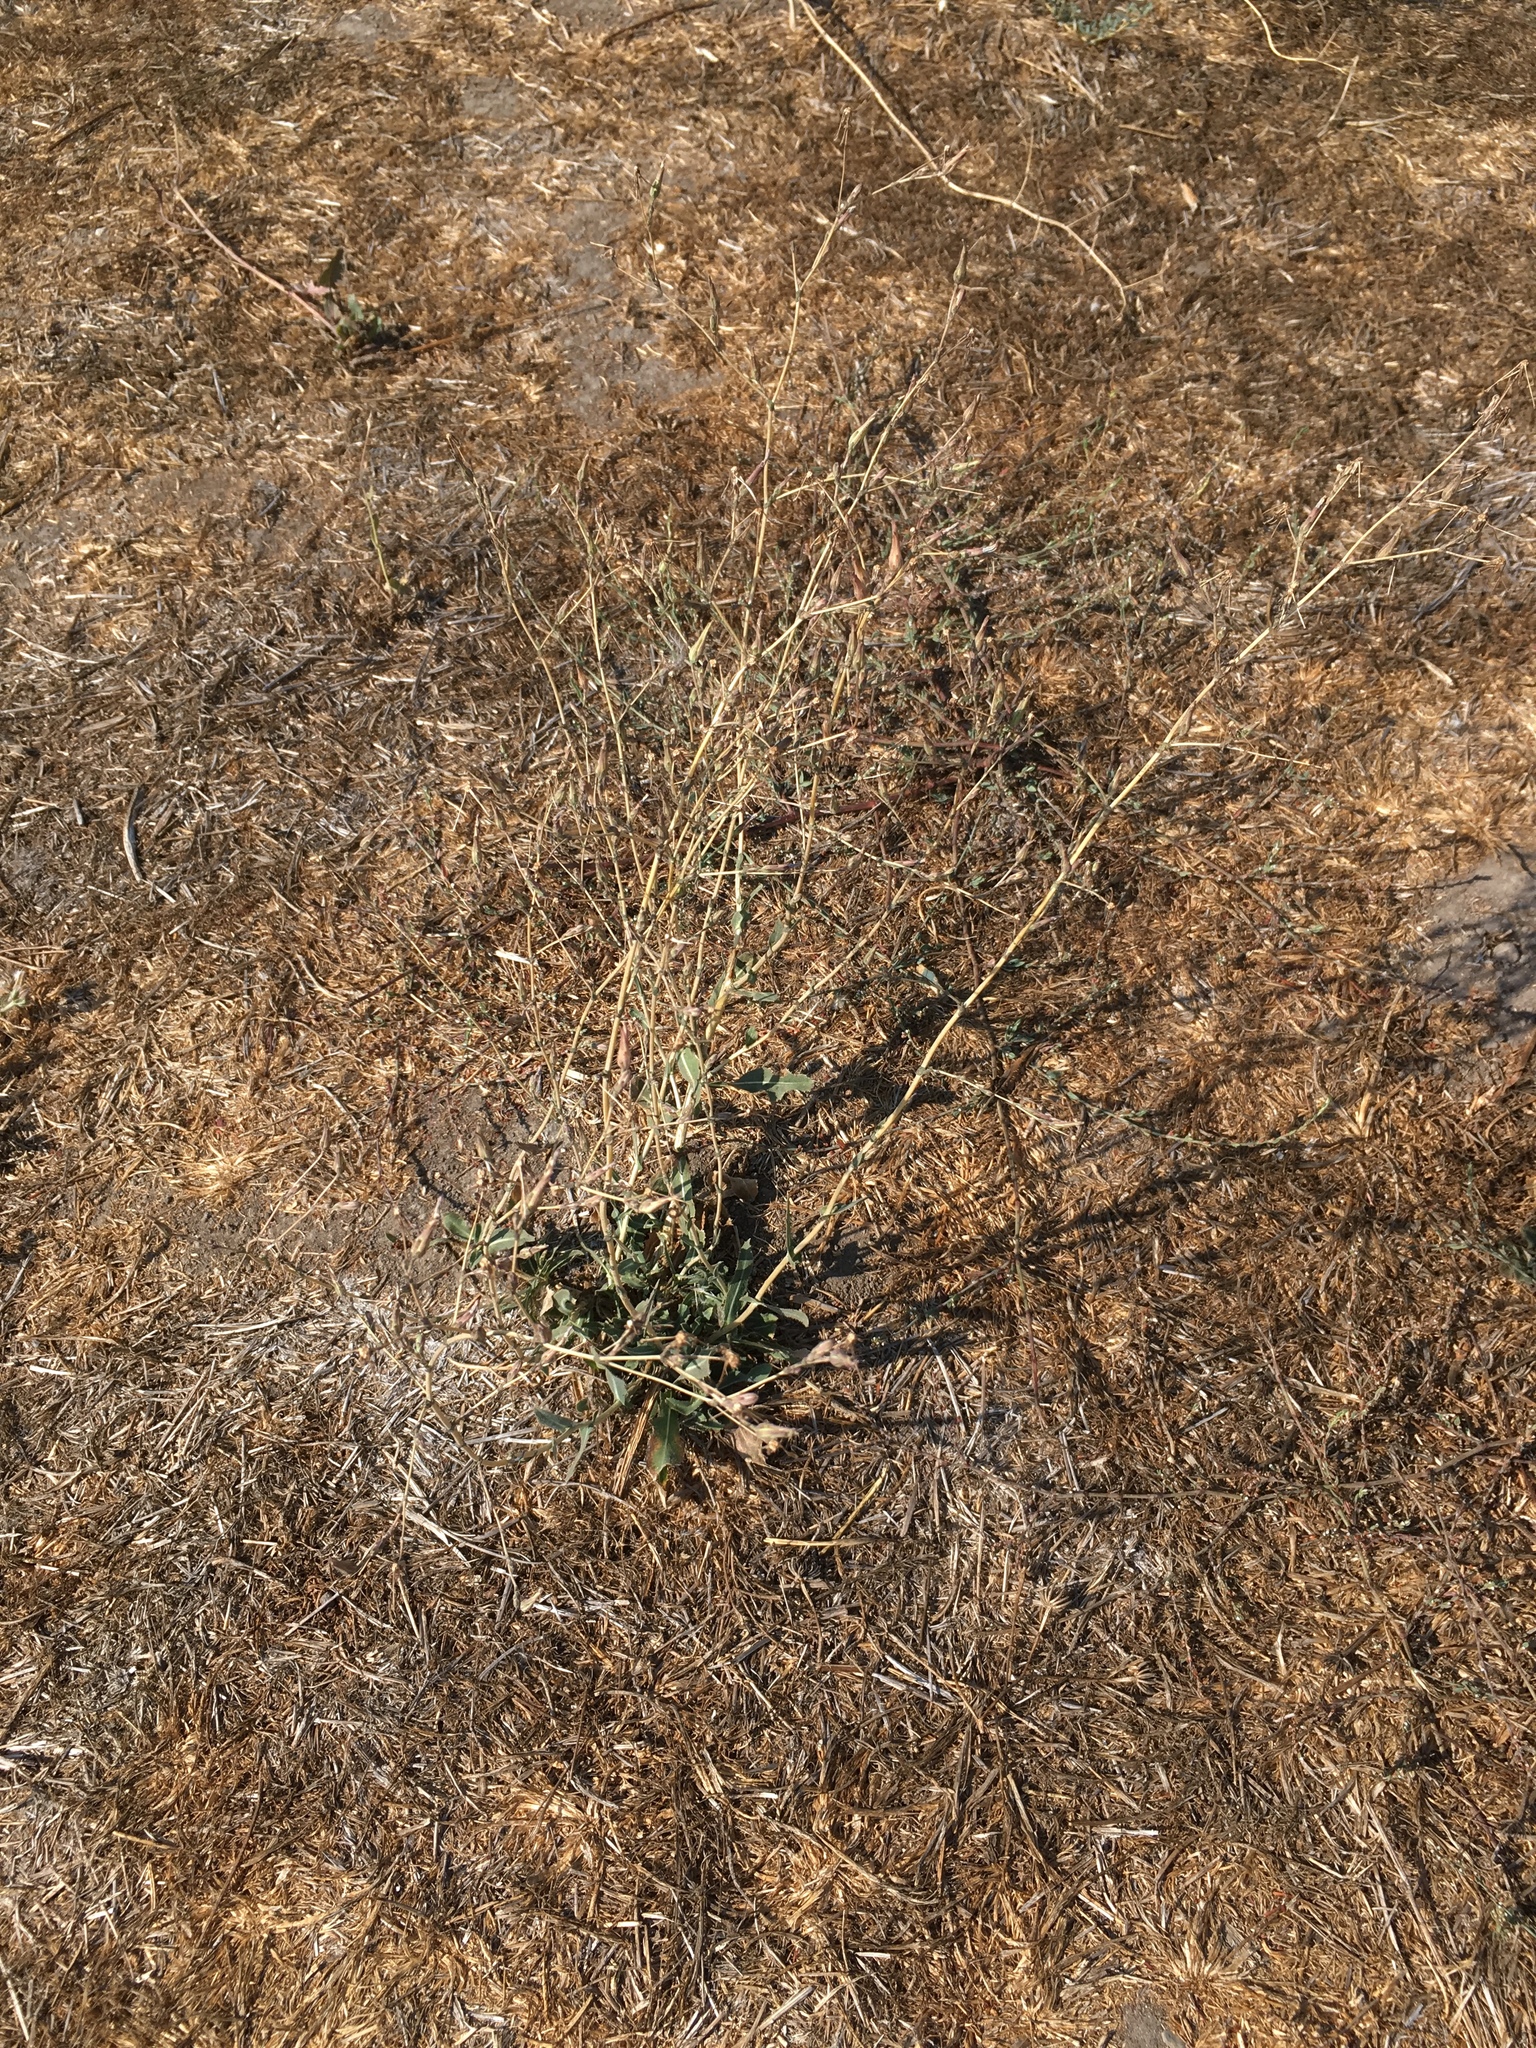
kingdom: Plantae
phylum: Tracheophyta
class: Magnoliopsida
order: Asterales
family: Asteraceae
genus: Lactuca
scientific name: Lactuca serriola
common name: Prickly lettuce
